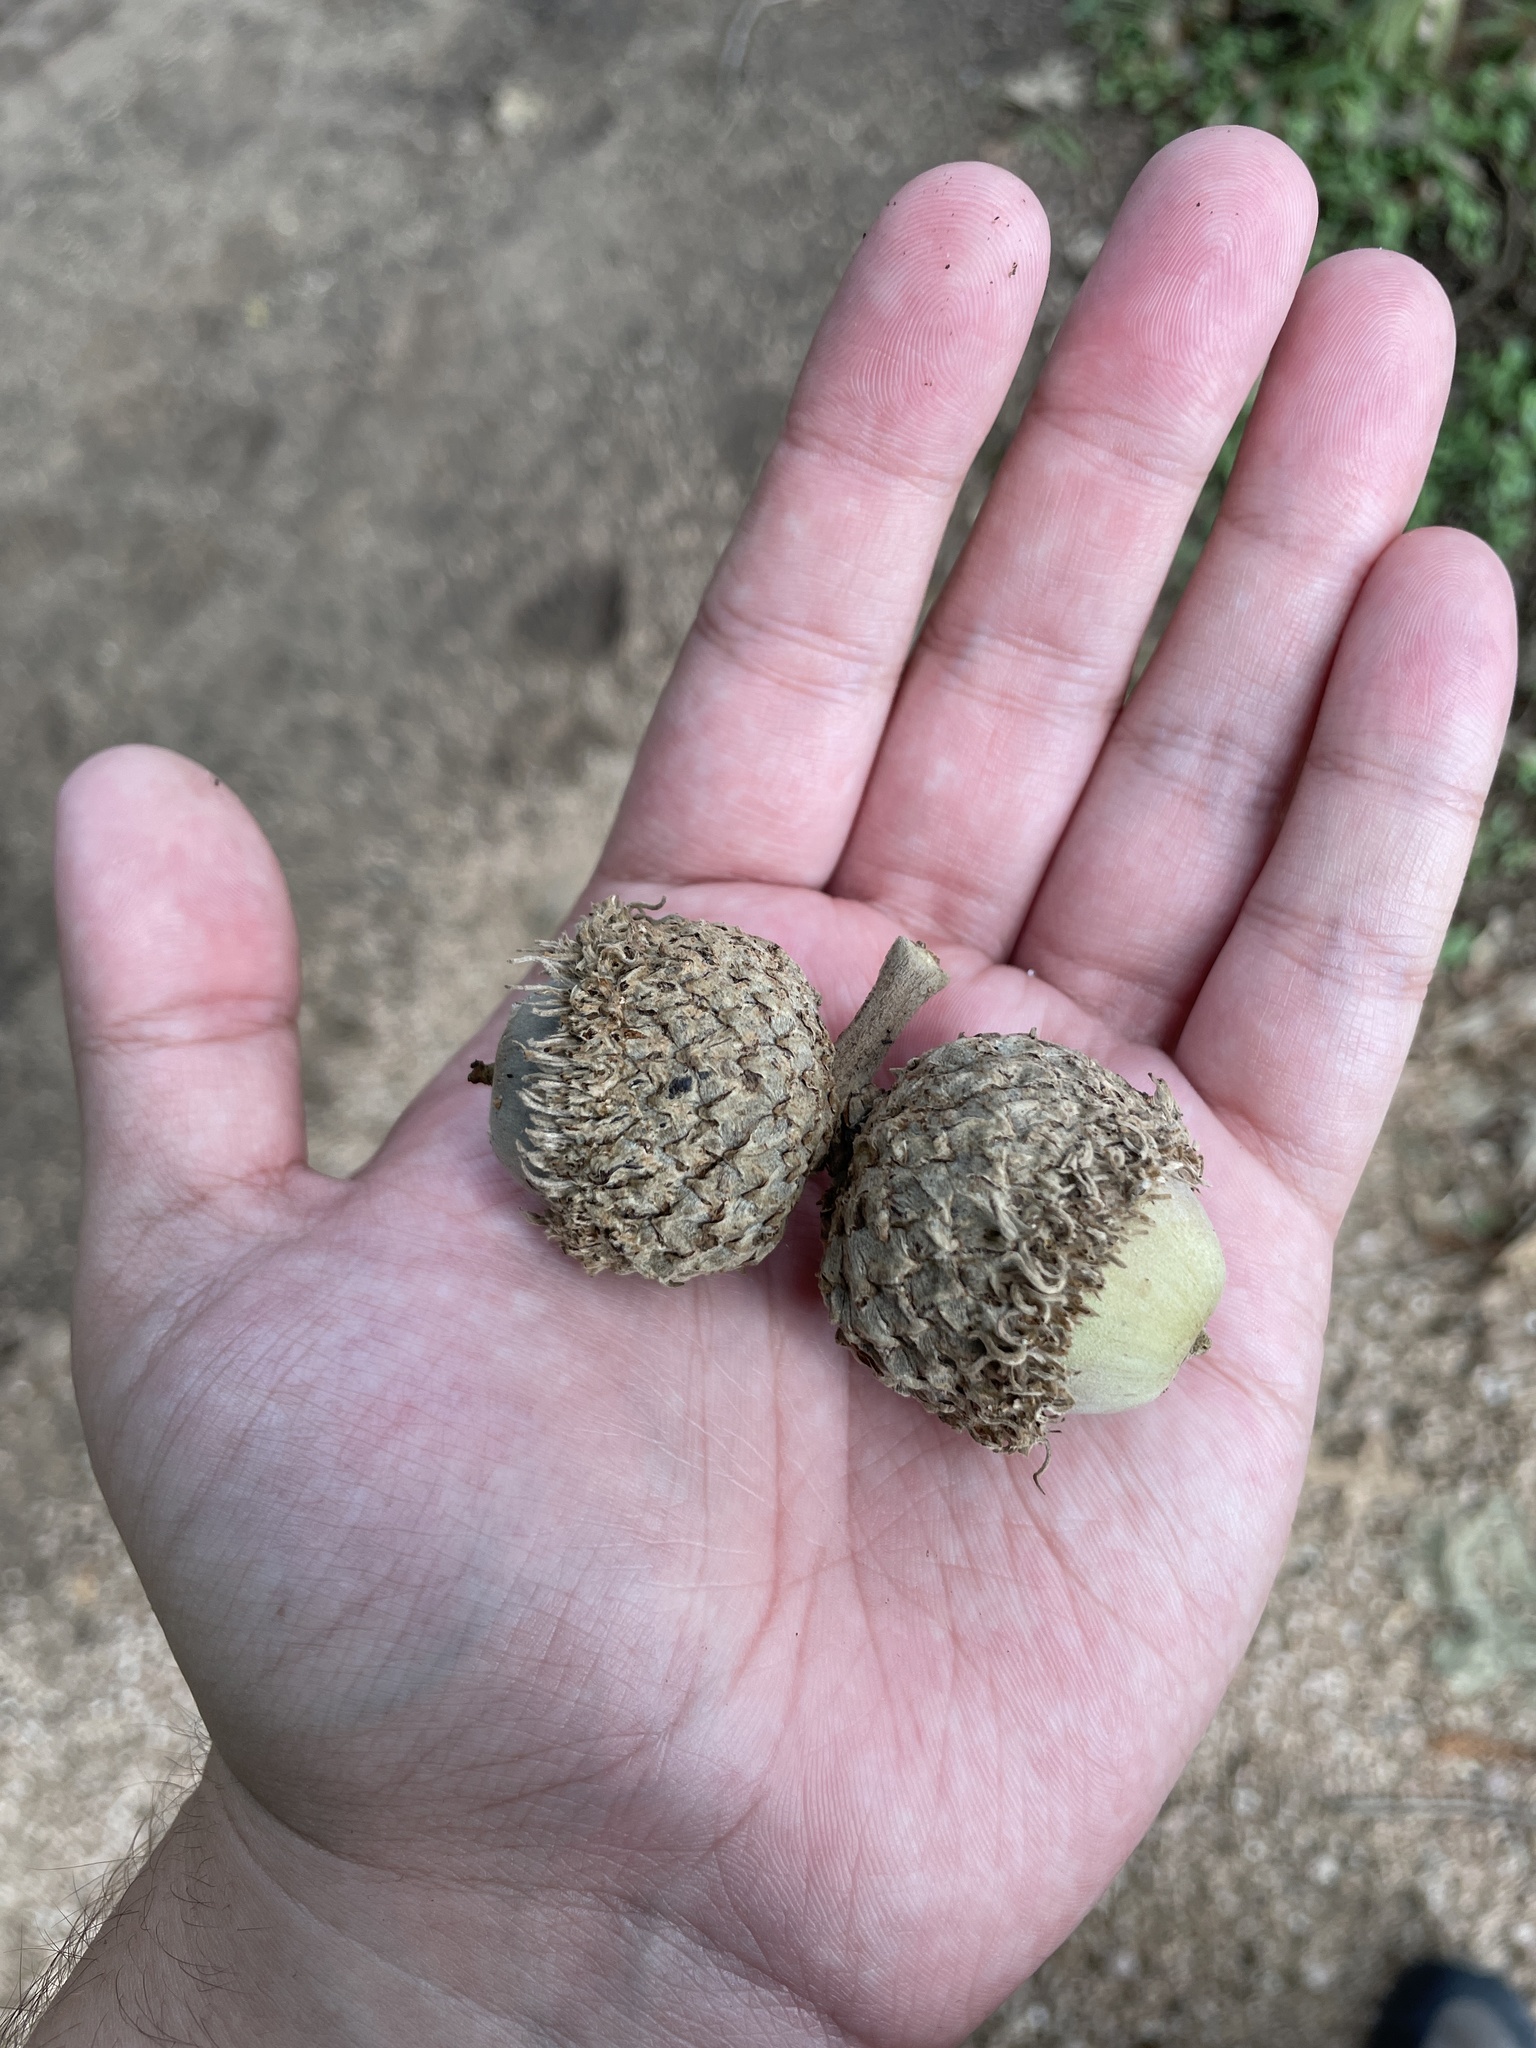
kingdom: Plantae
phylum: Tracheophyta
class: Magnoliopsida
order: Fagales
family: Fagaceae
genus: Quercus
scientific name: Quercus macrocarpa
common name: Bur oak
